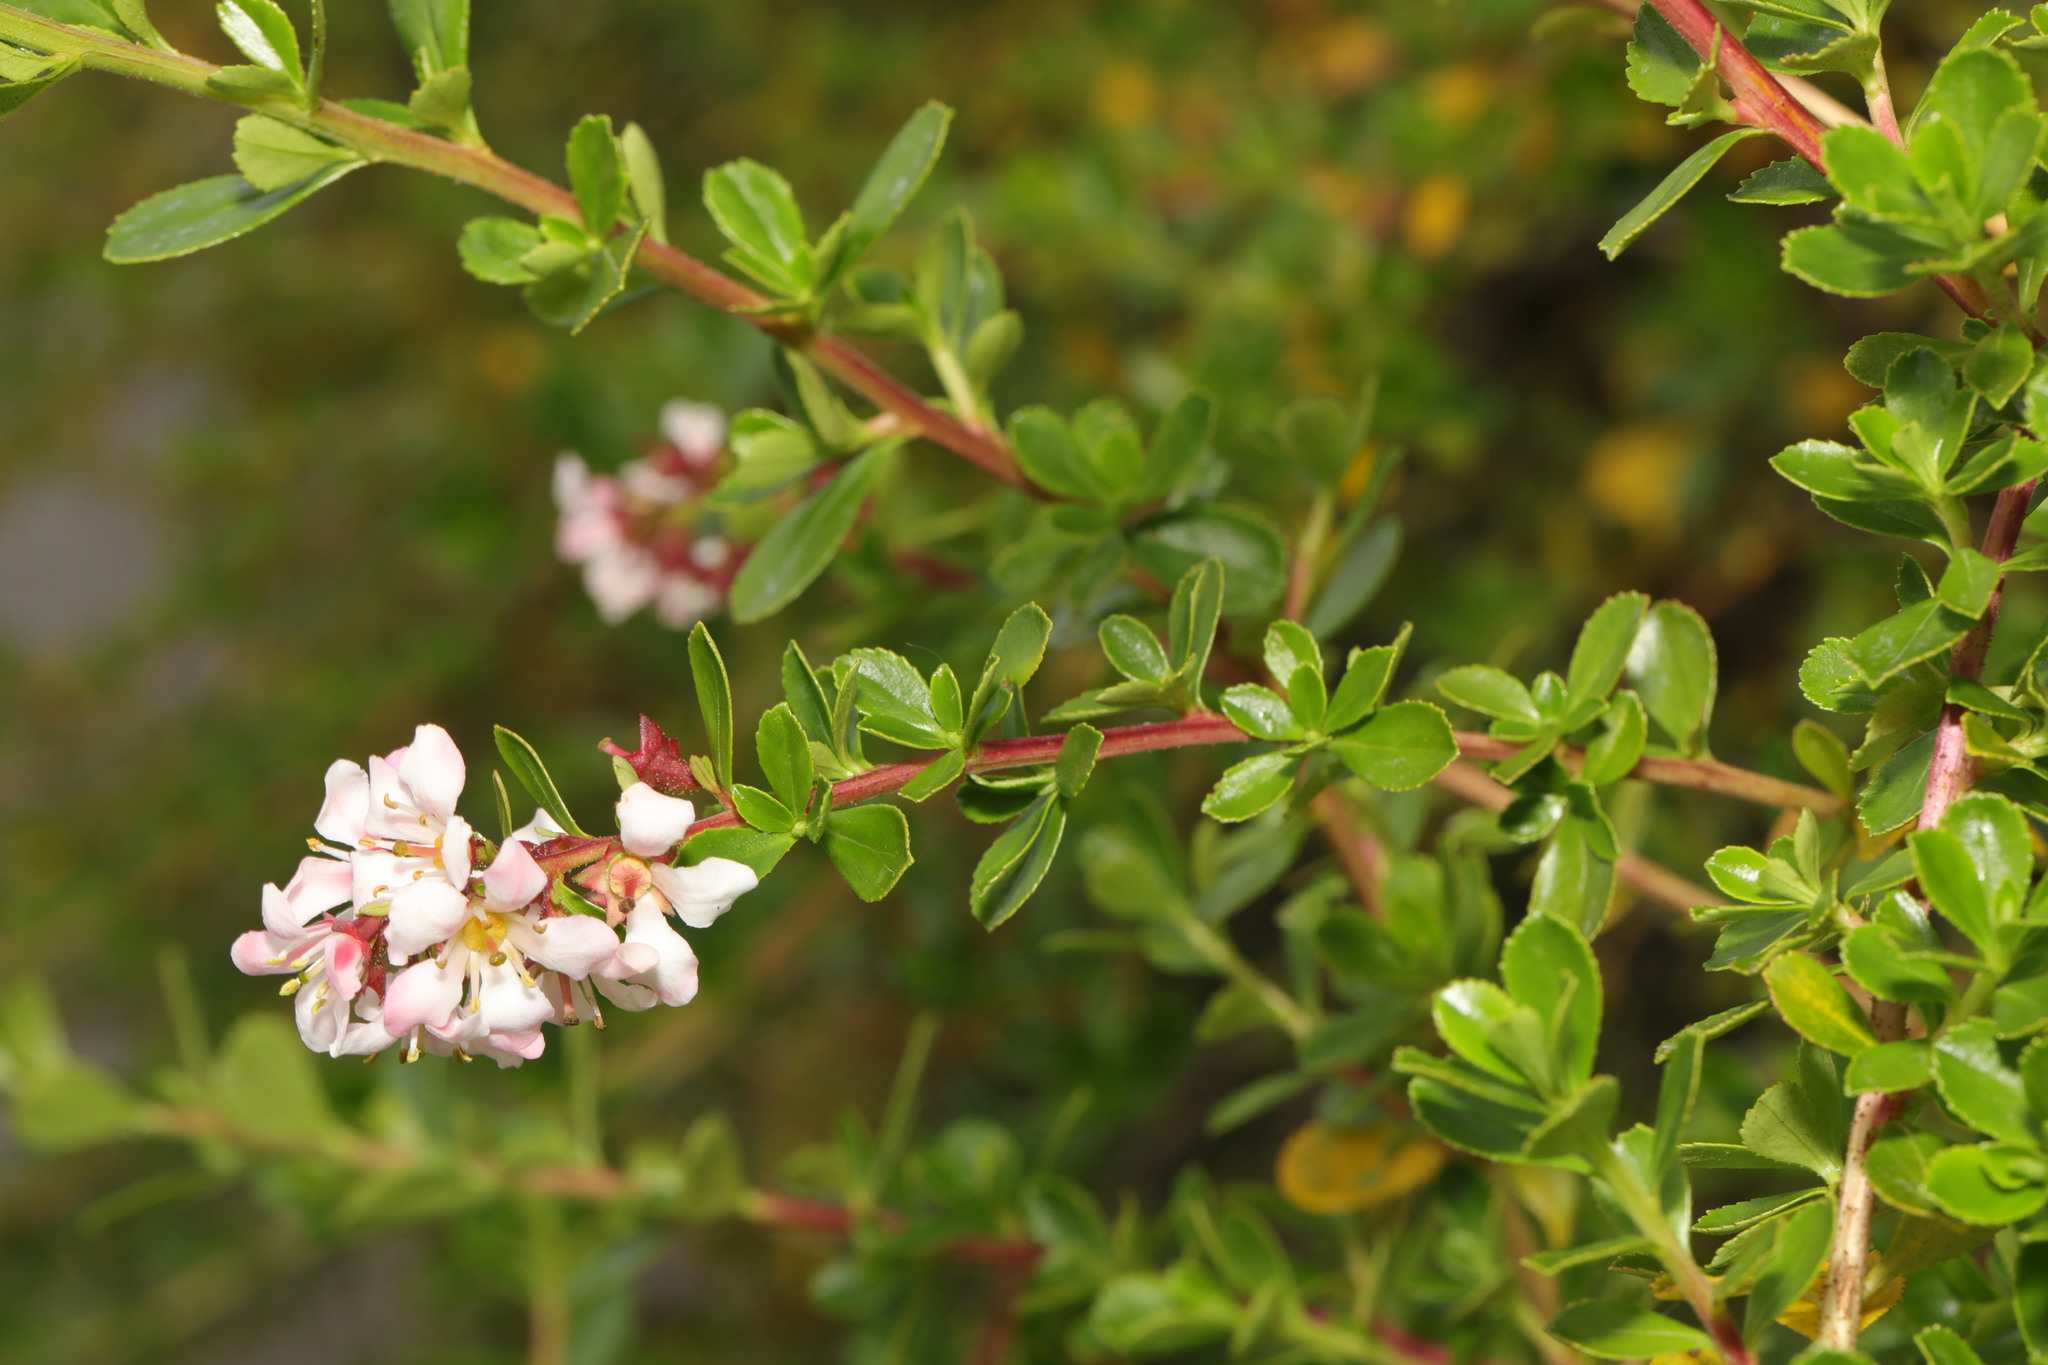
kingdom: Plantae
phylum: Tracheophyta
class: Magnoliopsida
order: Escalloniales
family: Escalloniaceae
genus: Escallonia
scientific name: Escallonia rubra
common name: Redclaws
